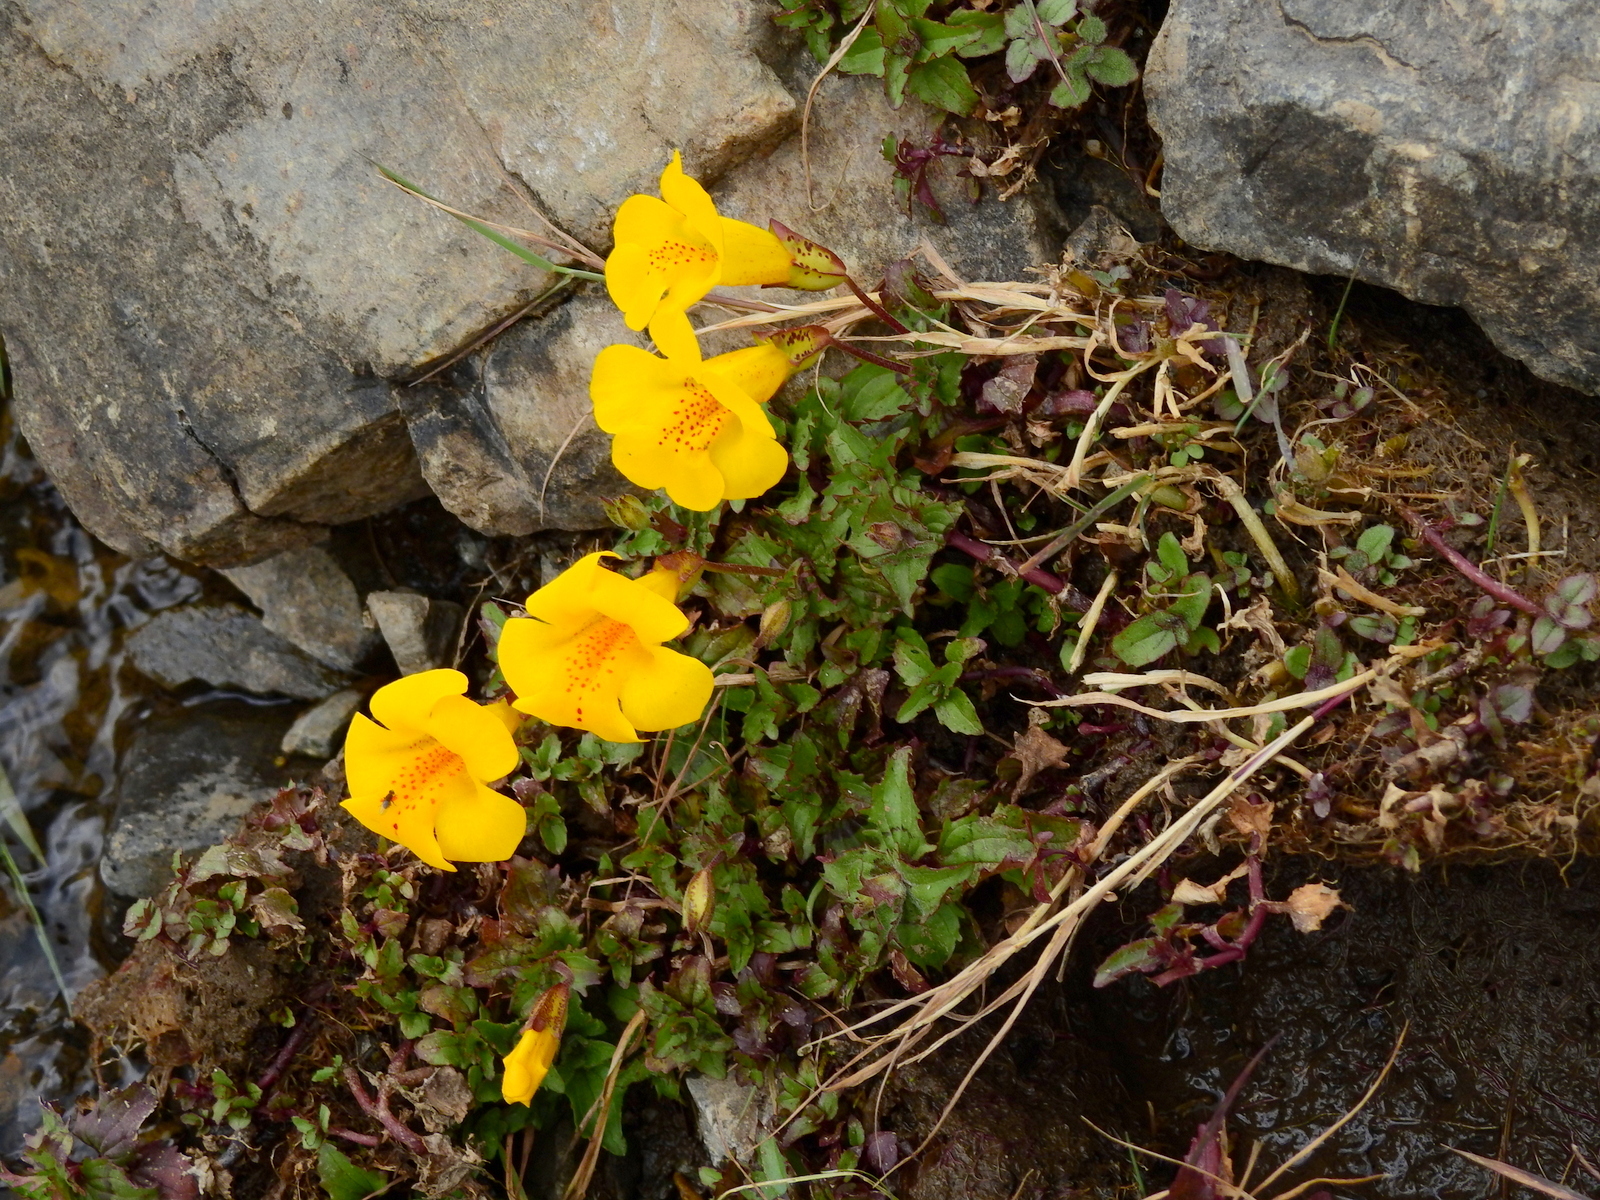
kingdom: Plantae
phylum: Tracheophyta
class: Magnoliopsida
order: Lamiales
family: Phrymaceae
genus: Erythranthe
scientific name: Erythranthe lutea
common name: Yellow monkey-flower
